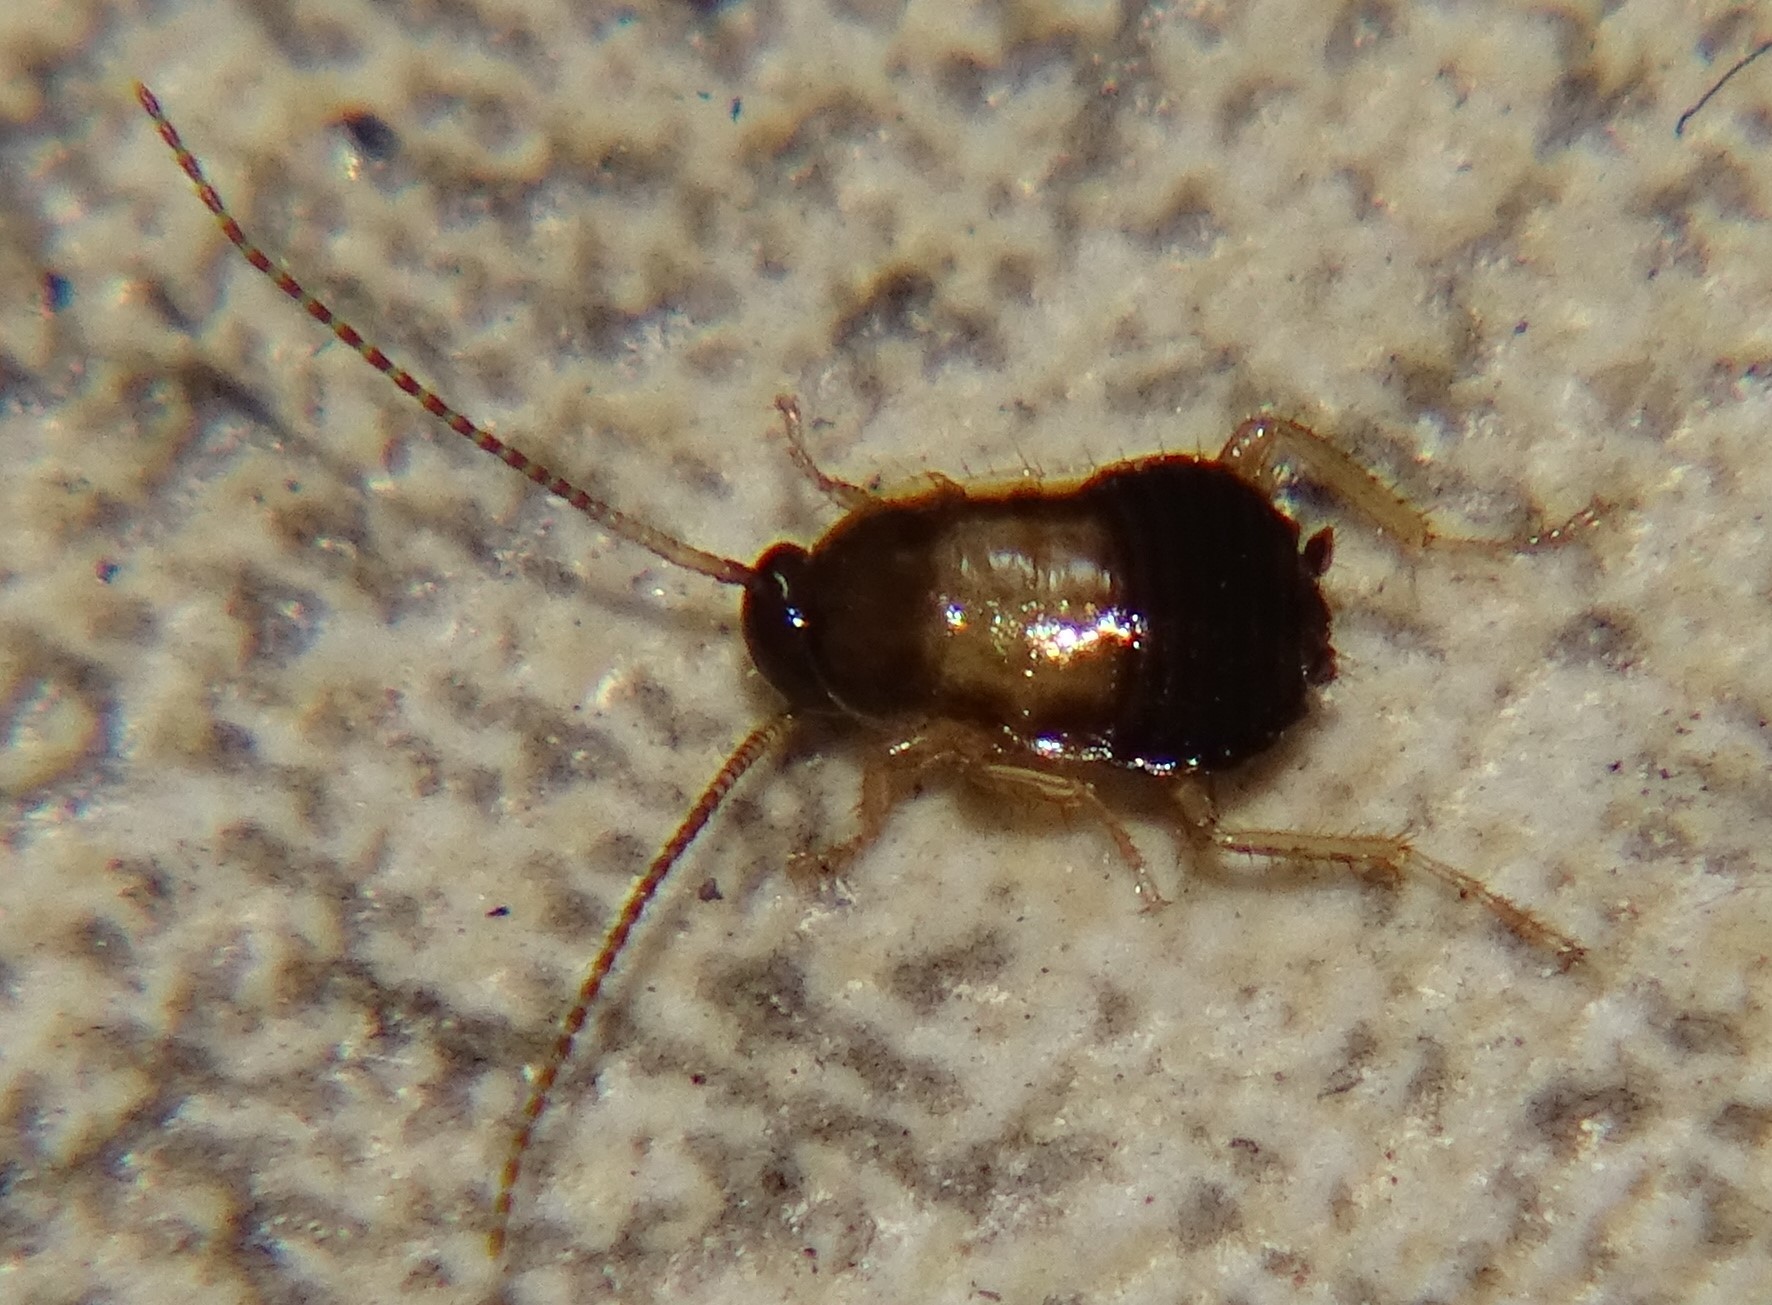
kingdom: Animalia
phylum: Arthropoda
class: Insecta
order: Blattodea
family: Ectobiidae
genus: Blattella
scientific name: Blattella germanica
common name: German cockroach
